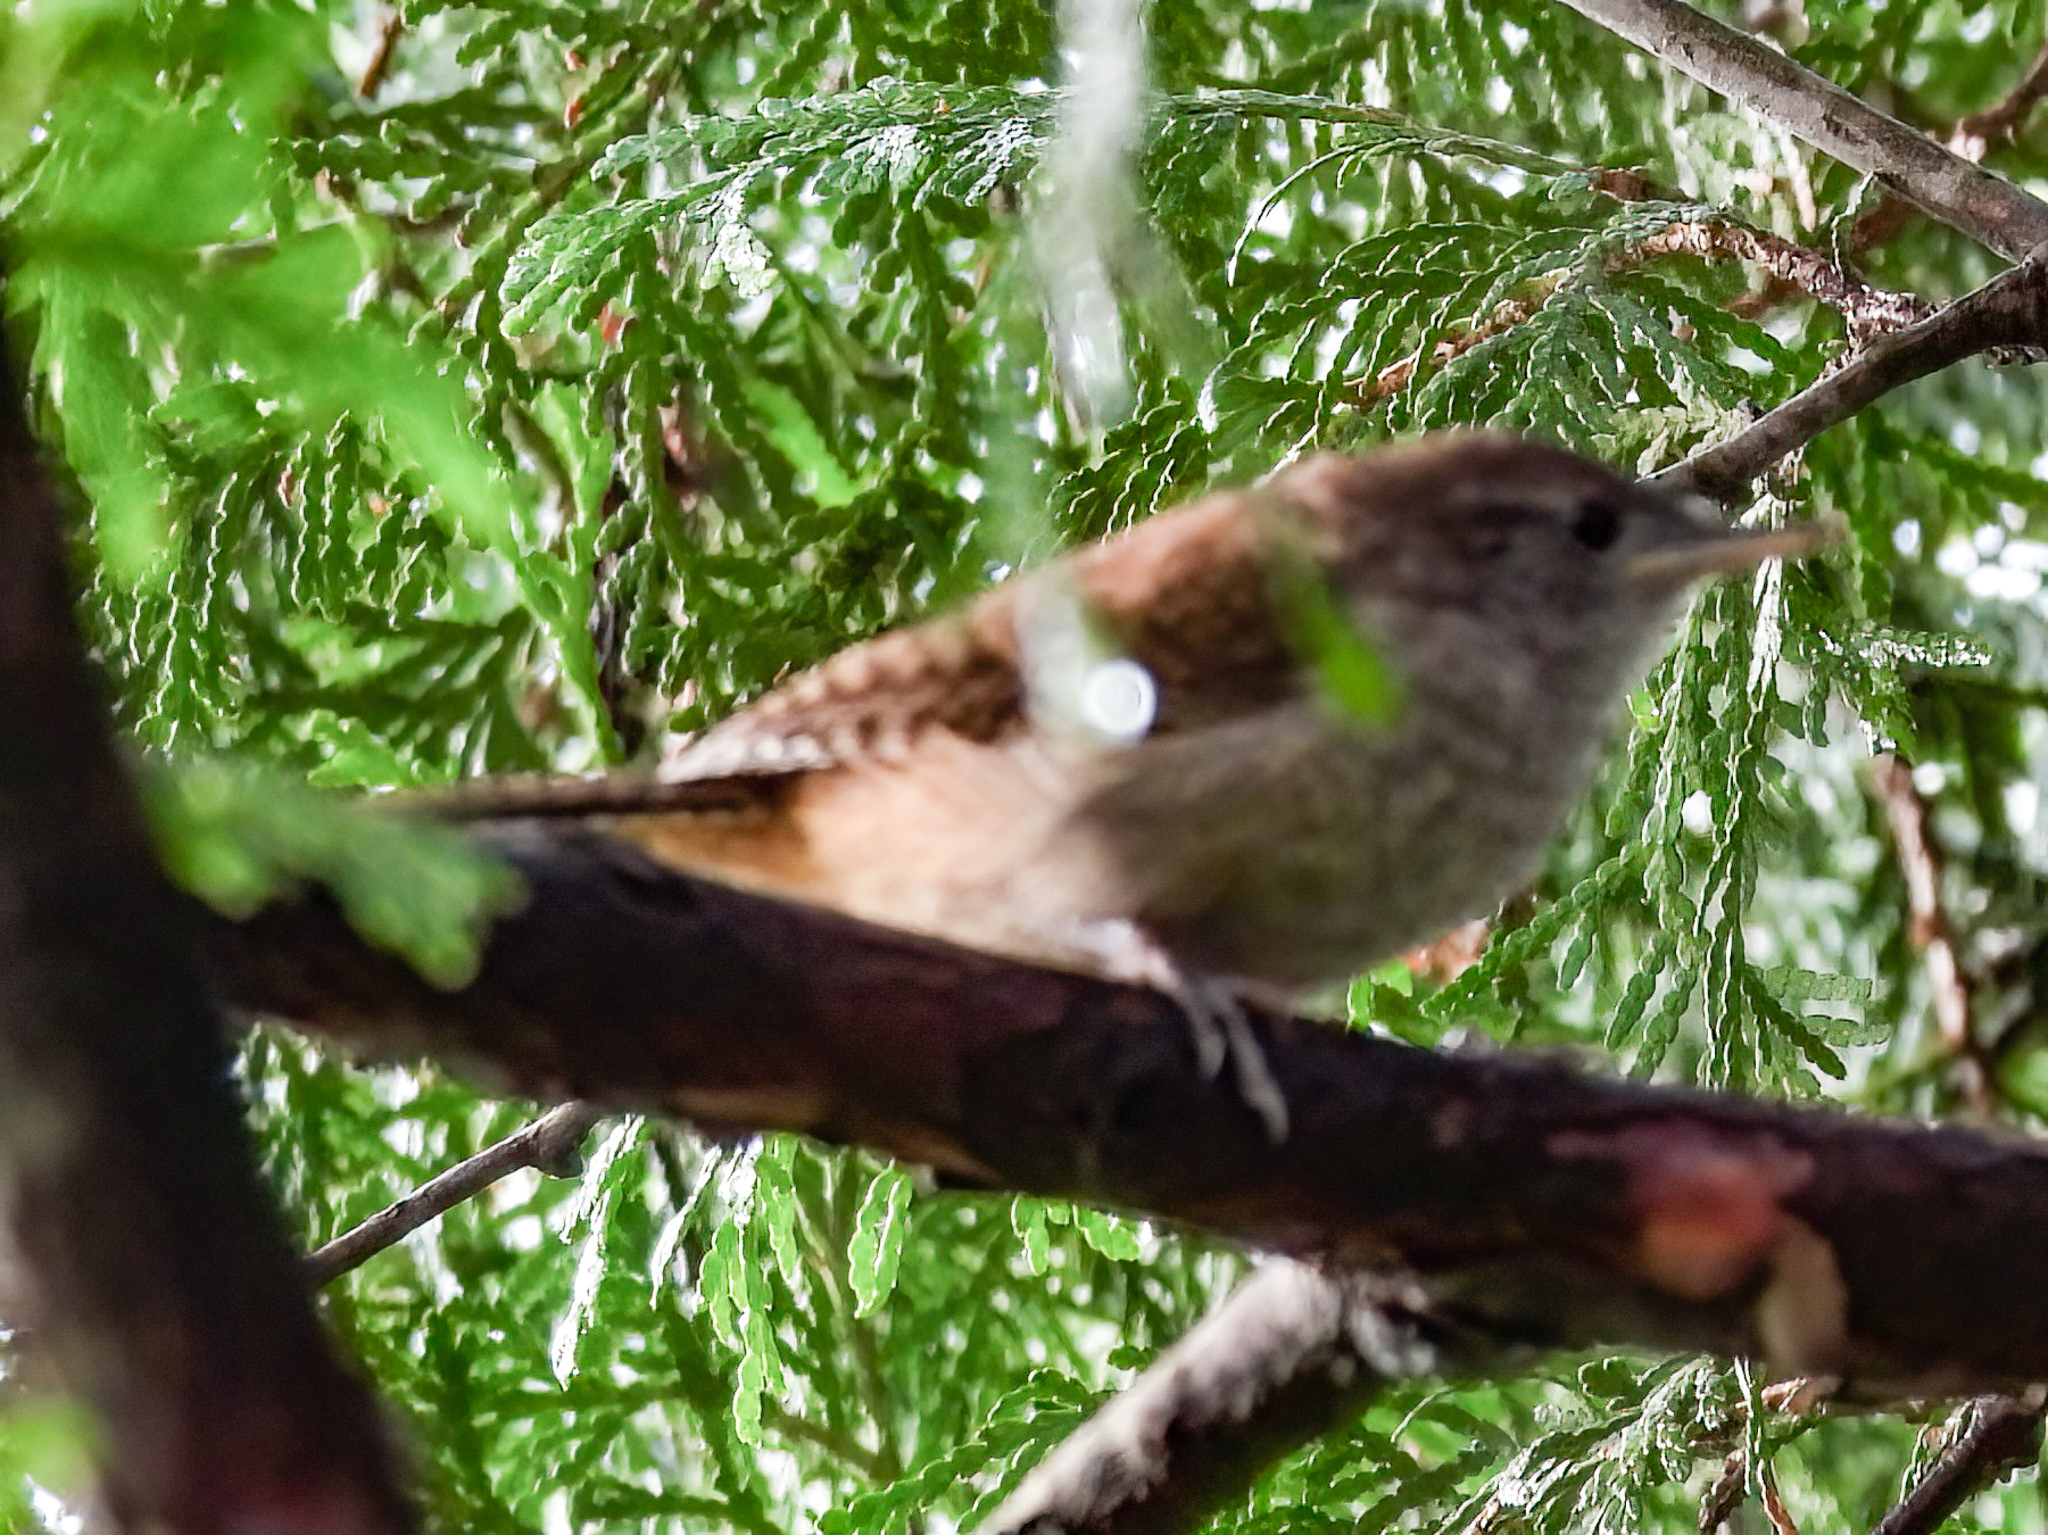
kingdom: Animalia
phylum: Chordata
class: Aves
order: Passeriformes
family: Troglodytidae
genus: Troglodytes
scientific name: Troglodytes aedon
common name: House wren
